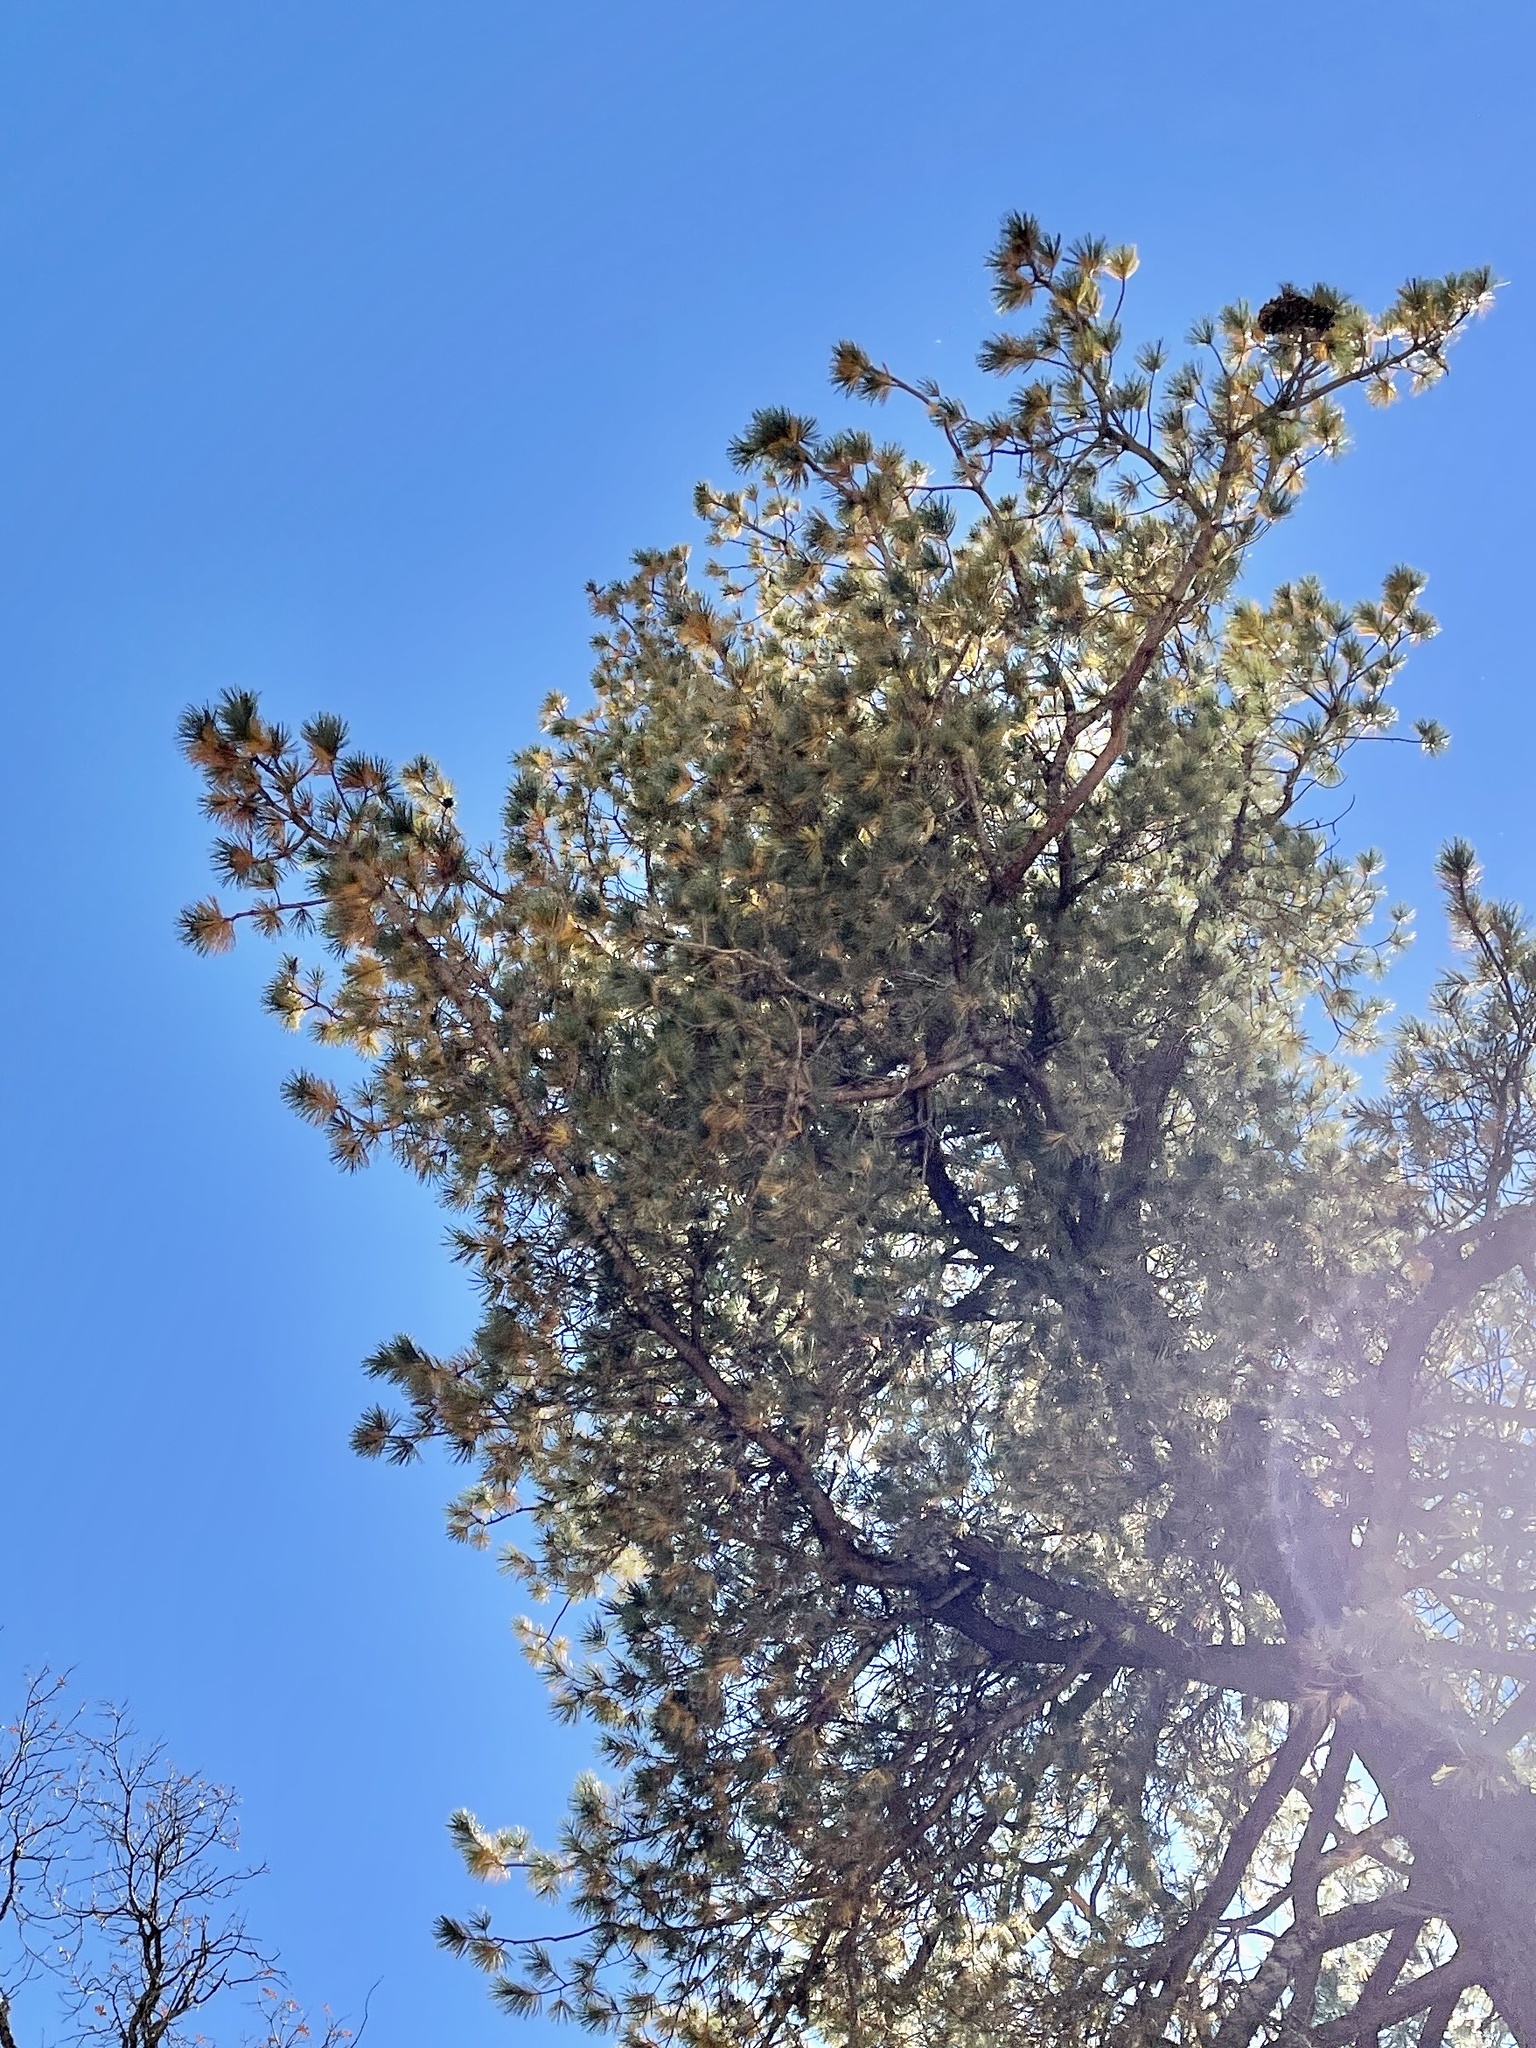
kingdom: Plantae
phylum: Tracheophyta
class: Pinopsida
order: Pinales
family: Pinaceae
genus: Pinus
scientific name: Pinus strobiformis
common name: Southwestern white pine
